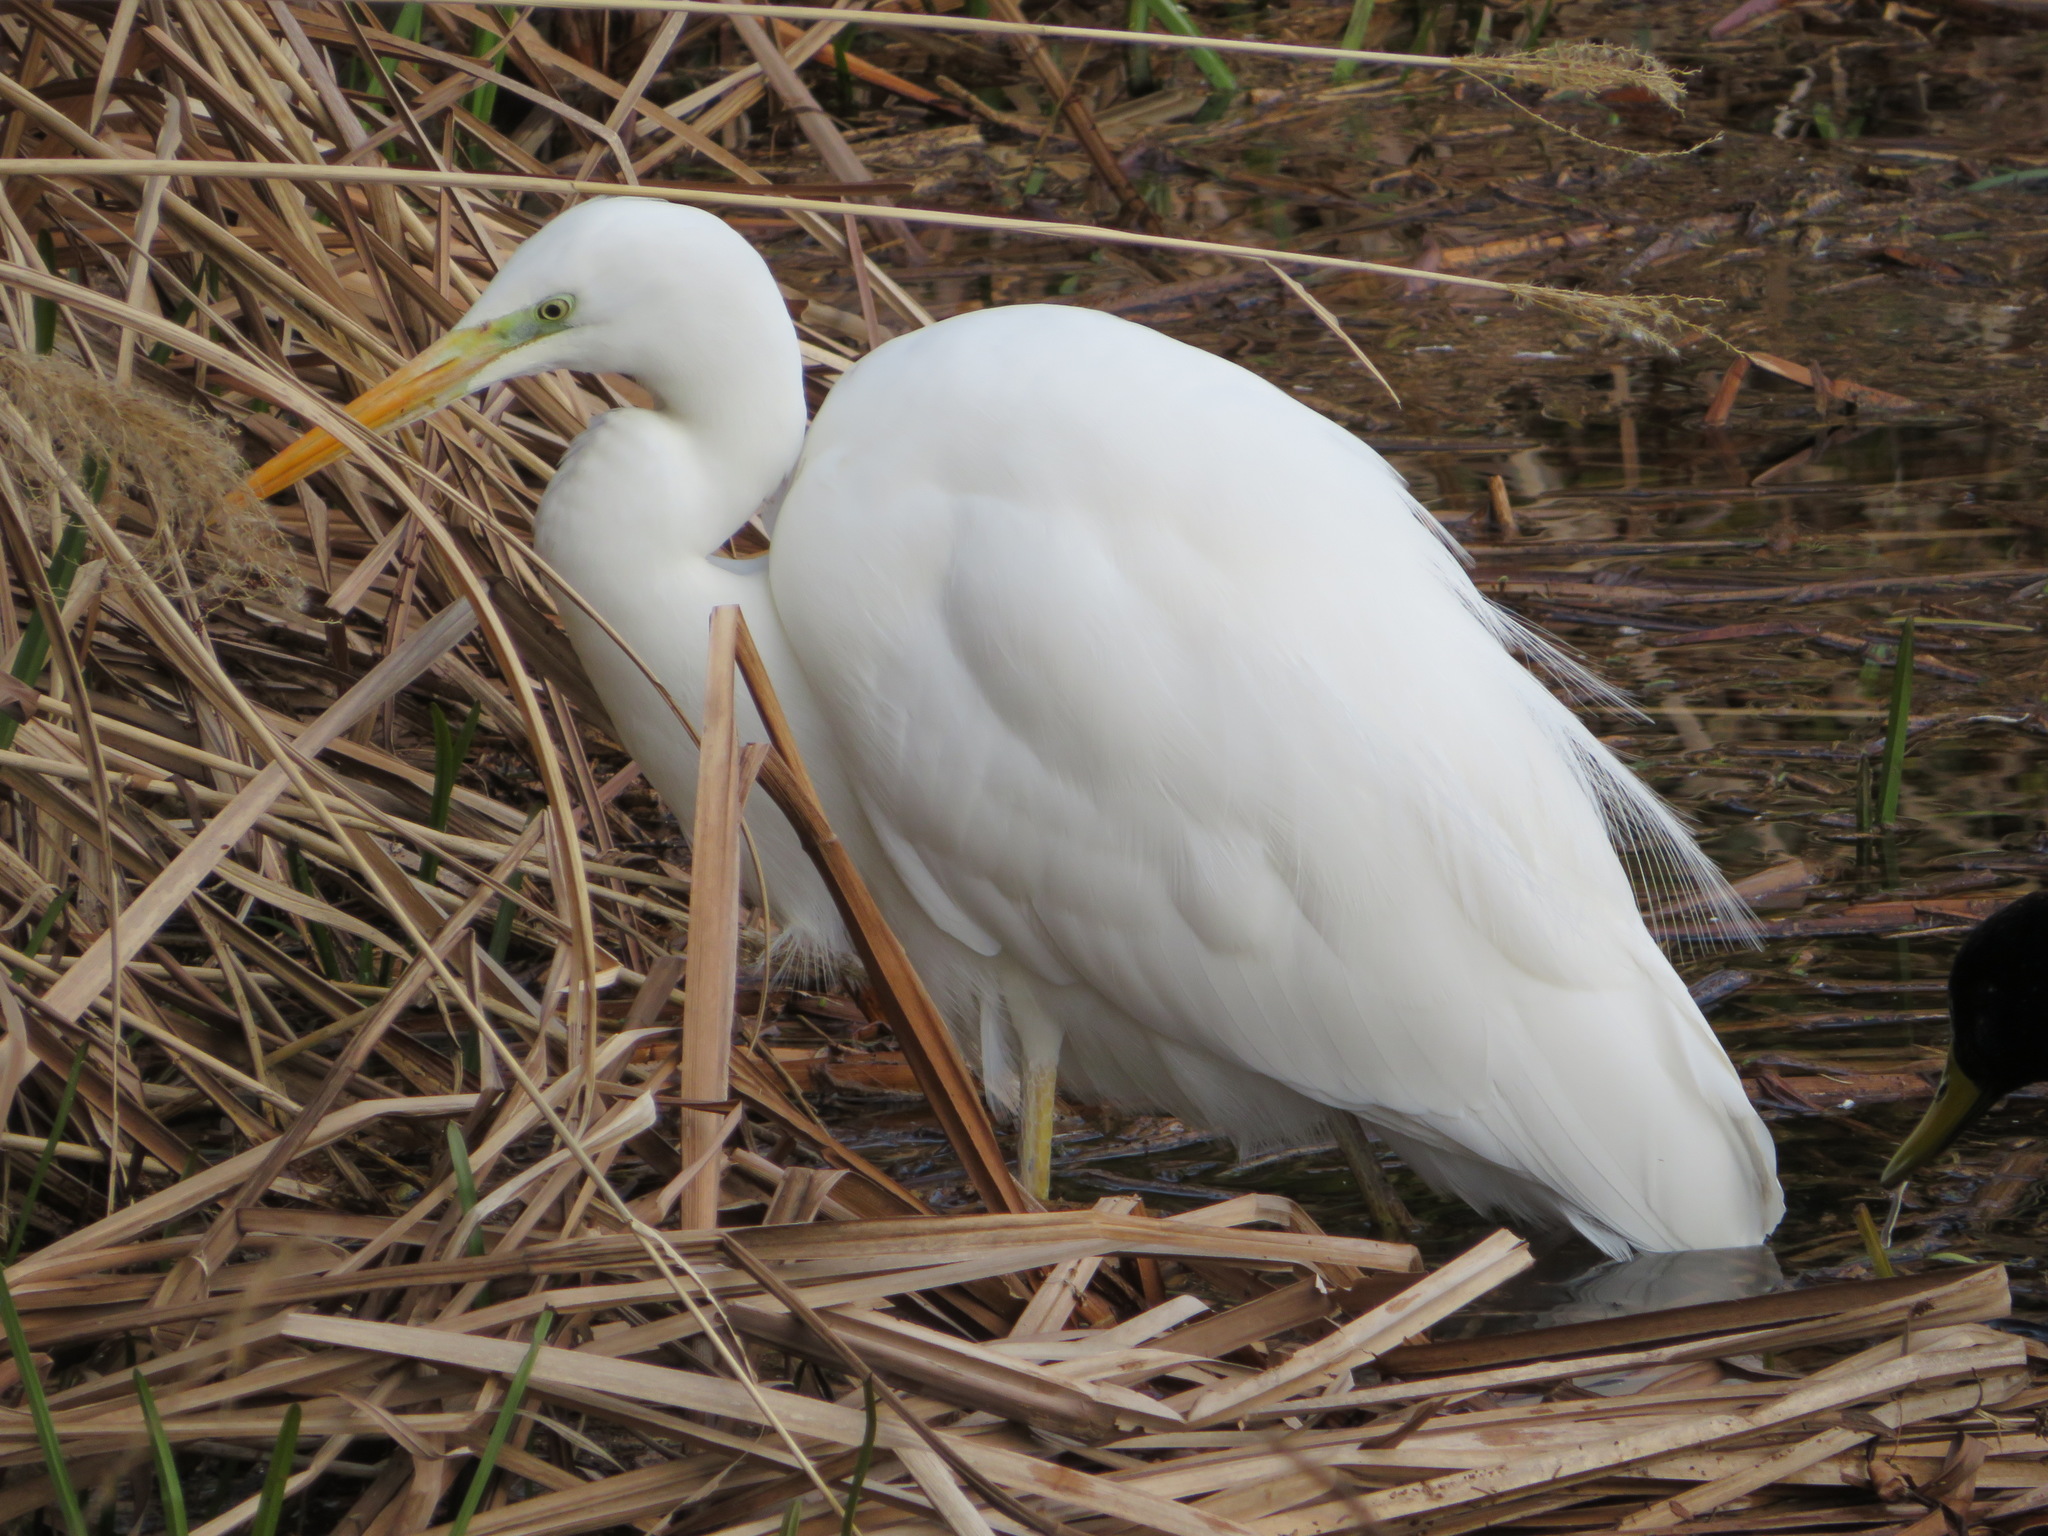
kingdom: Animalia
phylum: Chordata
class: Aves
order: Pelecaniformes
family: Ardeidae
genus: Ardea
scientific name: Ardea modesta
